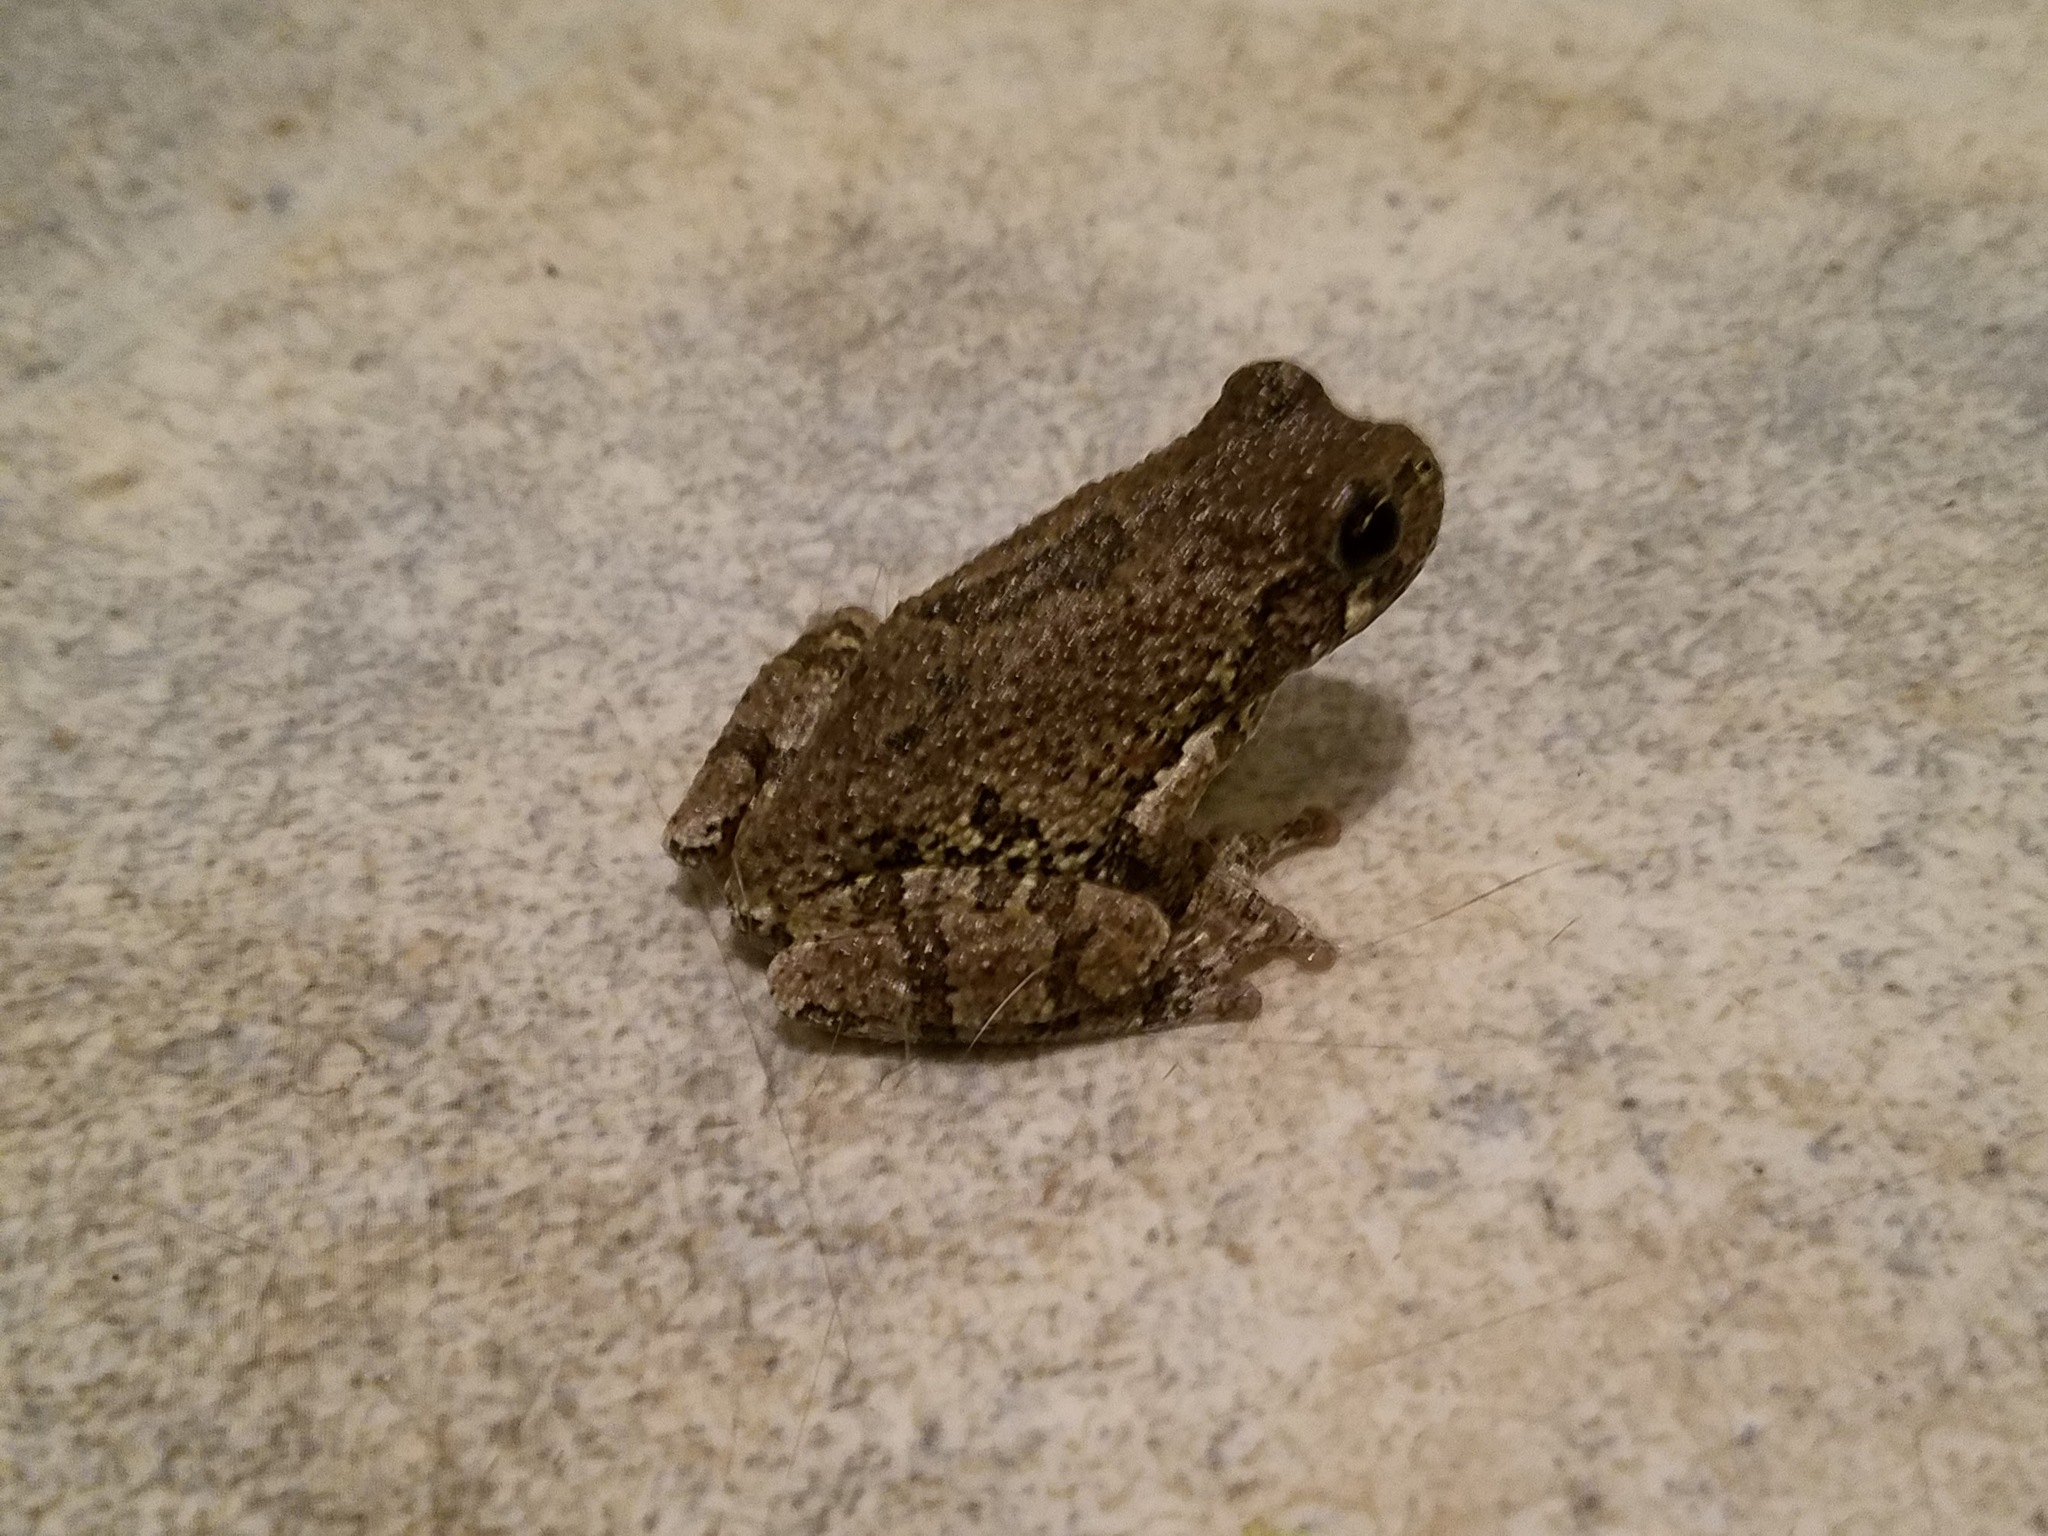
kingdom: Animalia
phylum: Chordata
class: Amphibia
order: Anura
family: Hylidae
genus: Dryophytes
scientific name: Dryophytes chrysoscelis
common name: Cope's gray treefrog
